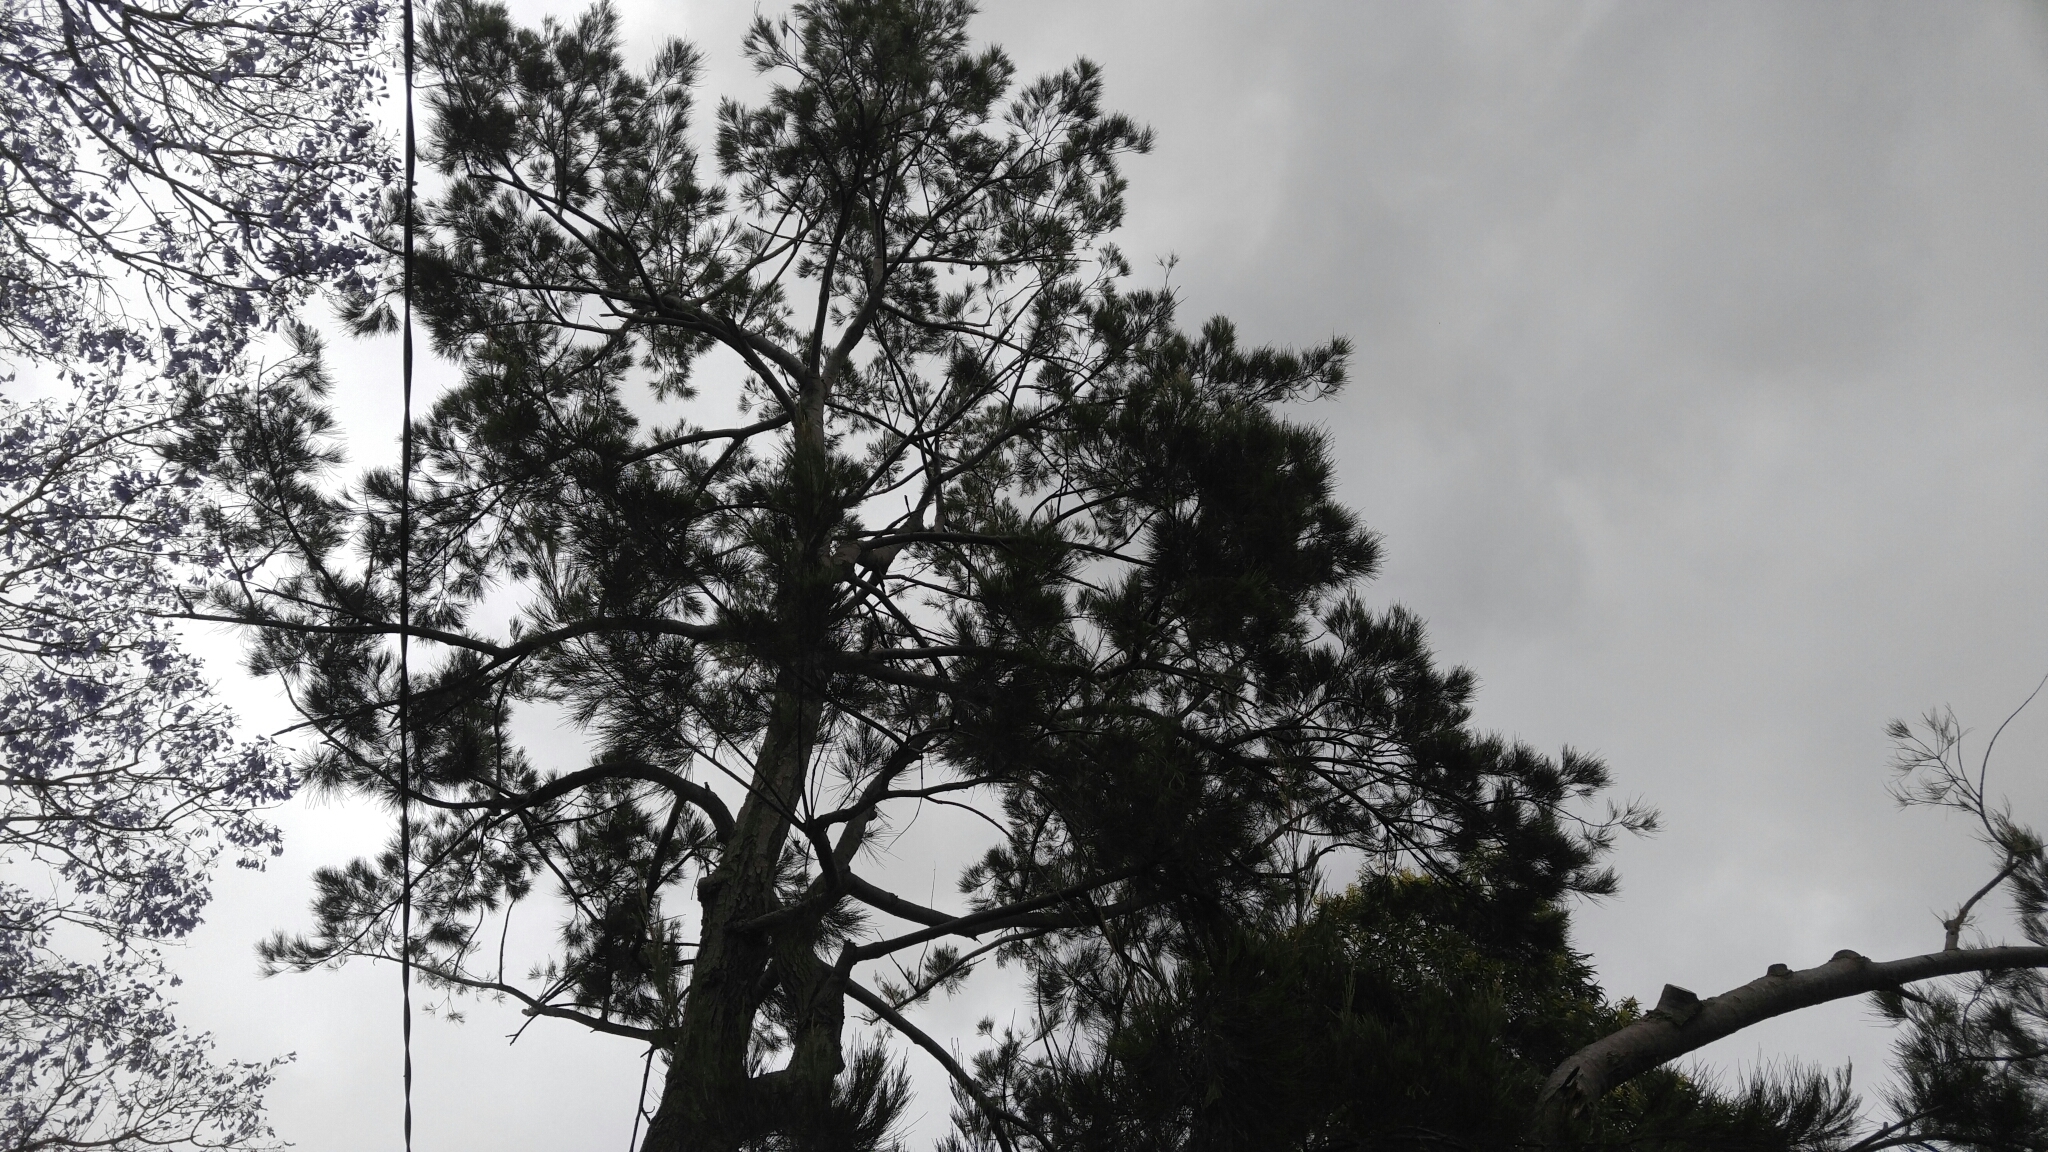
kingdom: Animalia
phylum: Chordata
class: Aves
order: Psittaciformes
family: Psittacidae
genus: Trichoglossus
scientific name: Trichoglossus haematodus
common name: Coconut lorikeet
